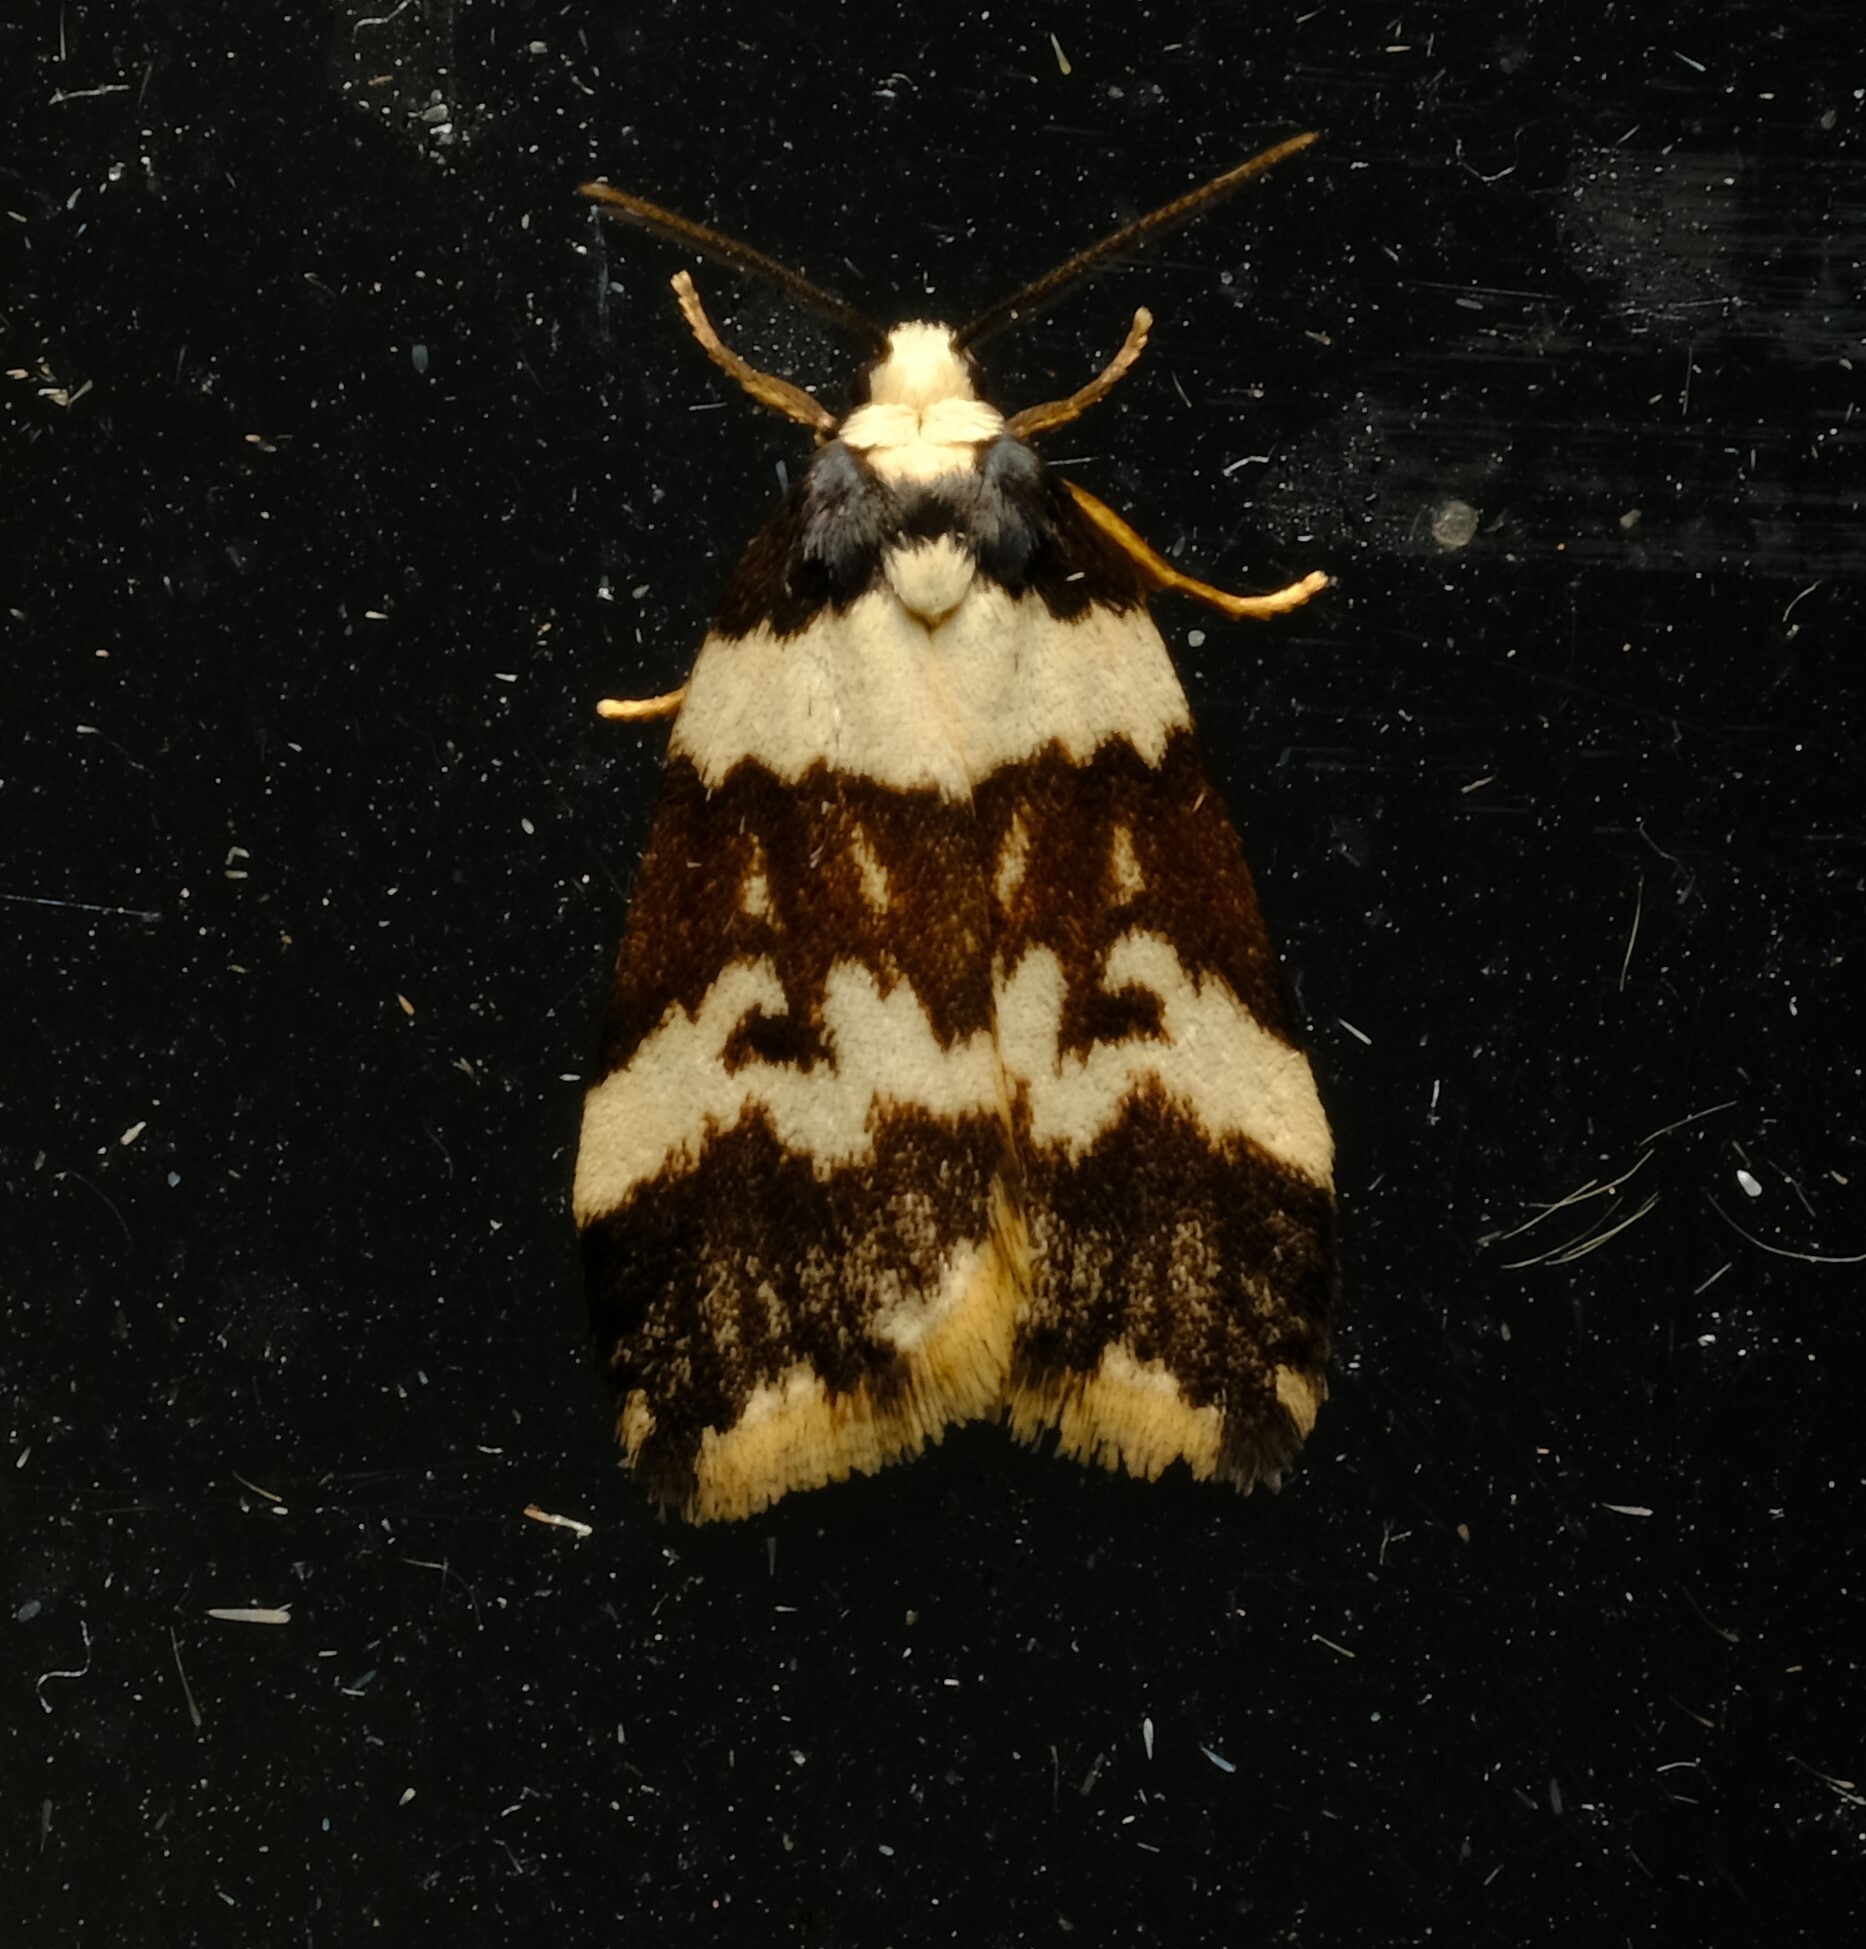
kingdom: Animalia
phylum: Arthropoda
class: Insecta
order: Lepidoptera
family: Erebidae
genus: Halone
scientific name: Halone sejuncta
